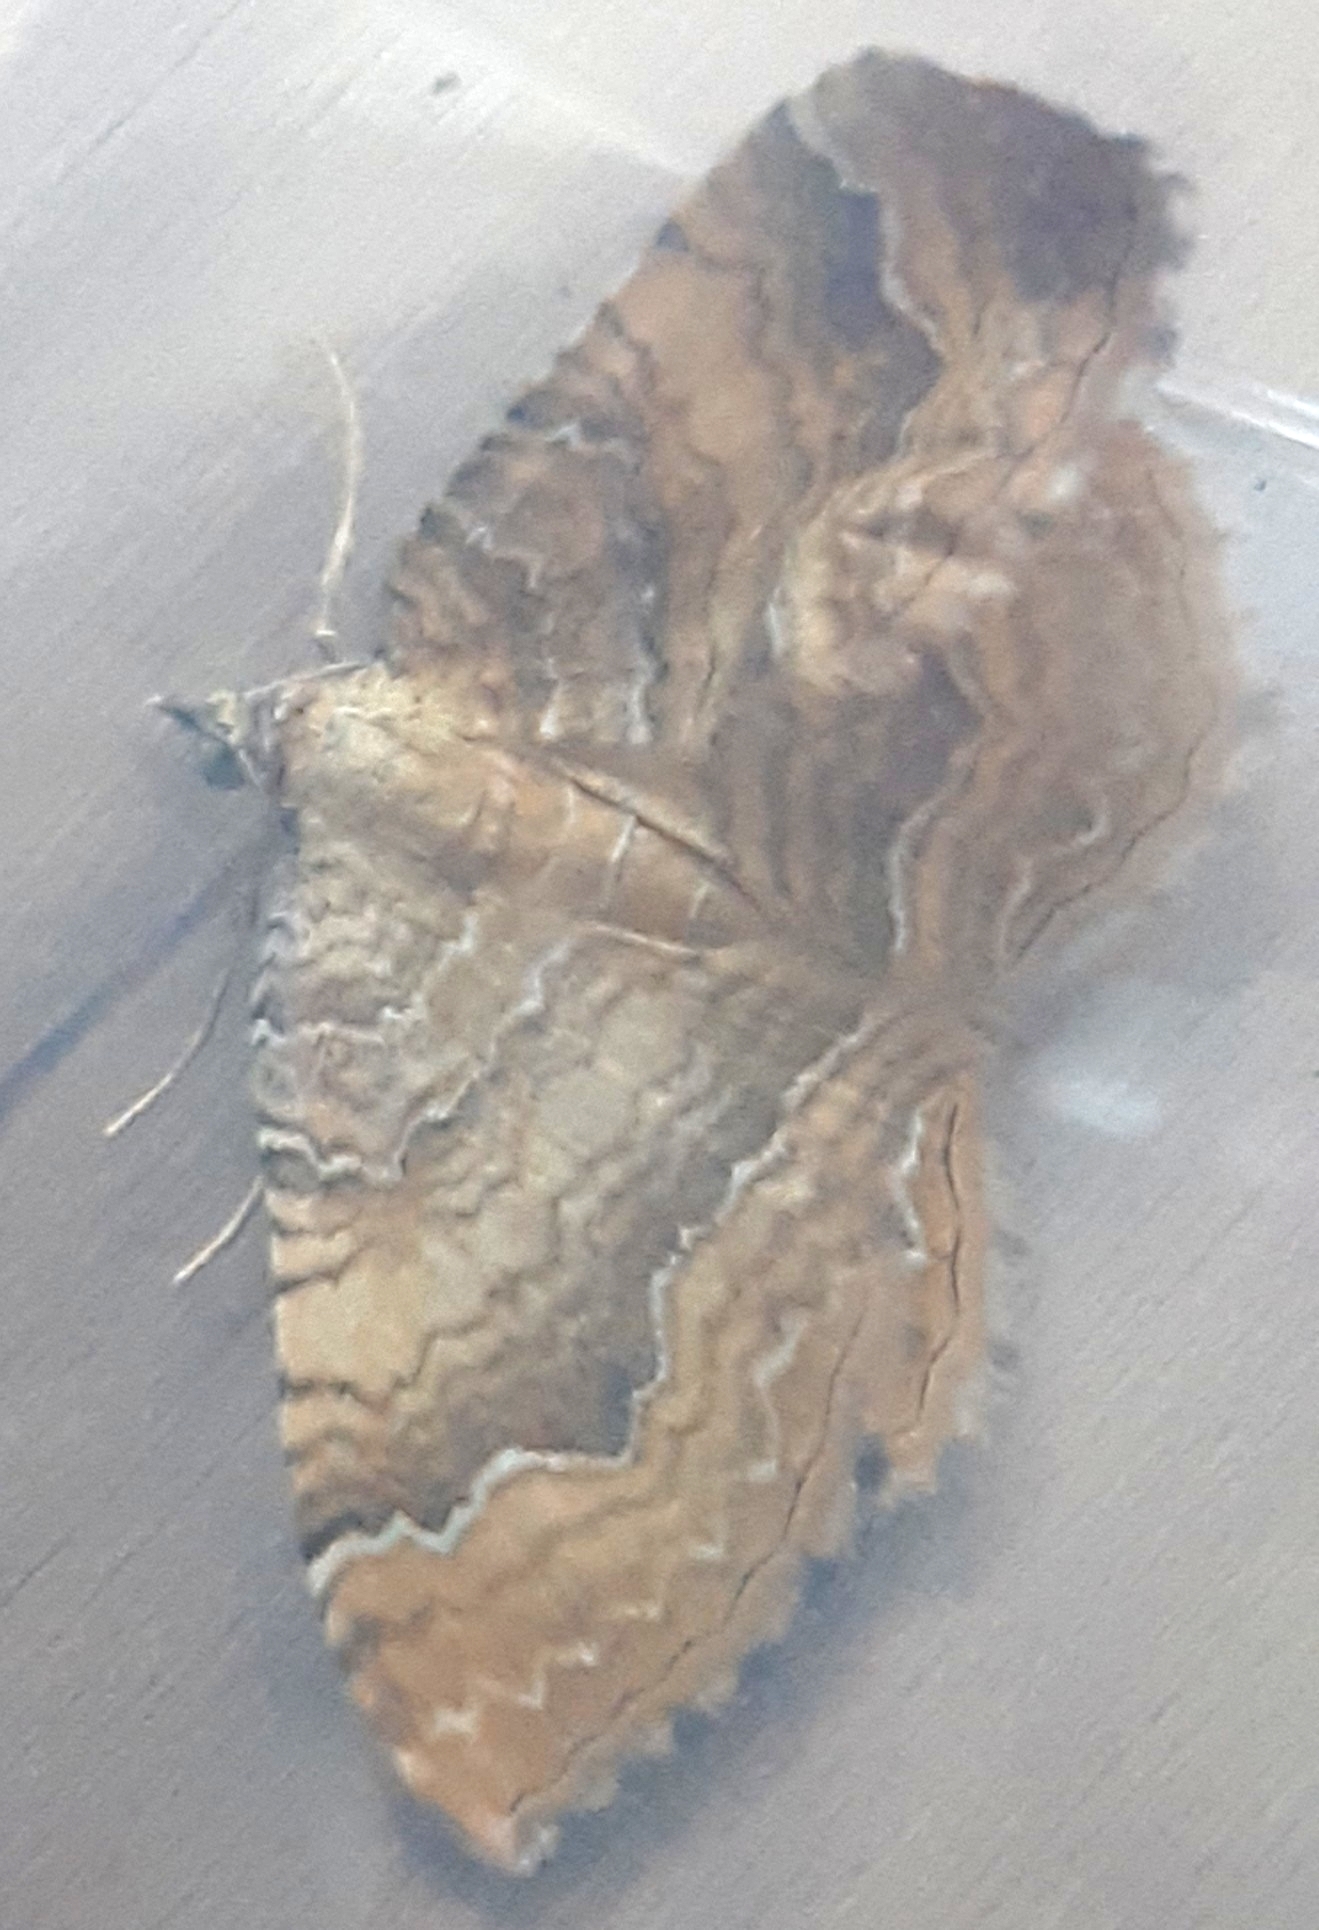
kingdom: Animalia
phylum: Arthropoda
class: Insecta
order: Lepidoptera
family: Geometridae
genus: Camptogramma
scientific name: Camptogramma bilineata
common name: Yellow shell
